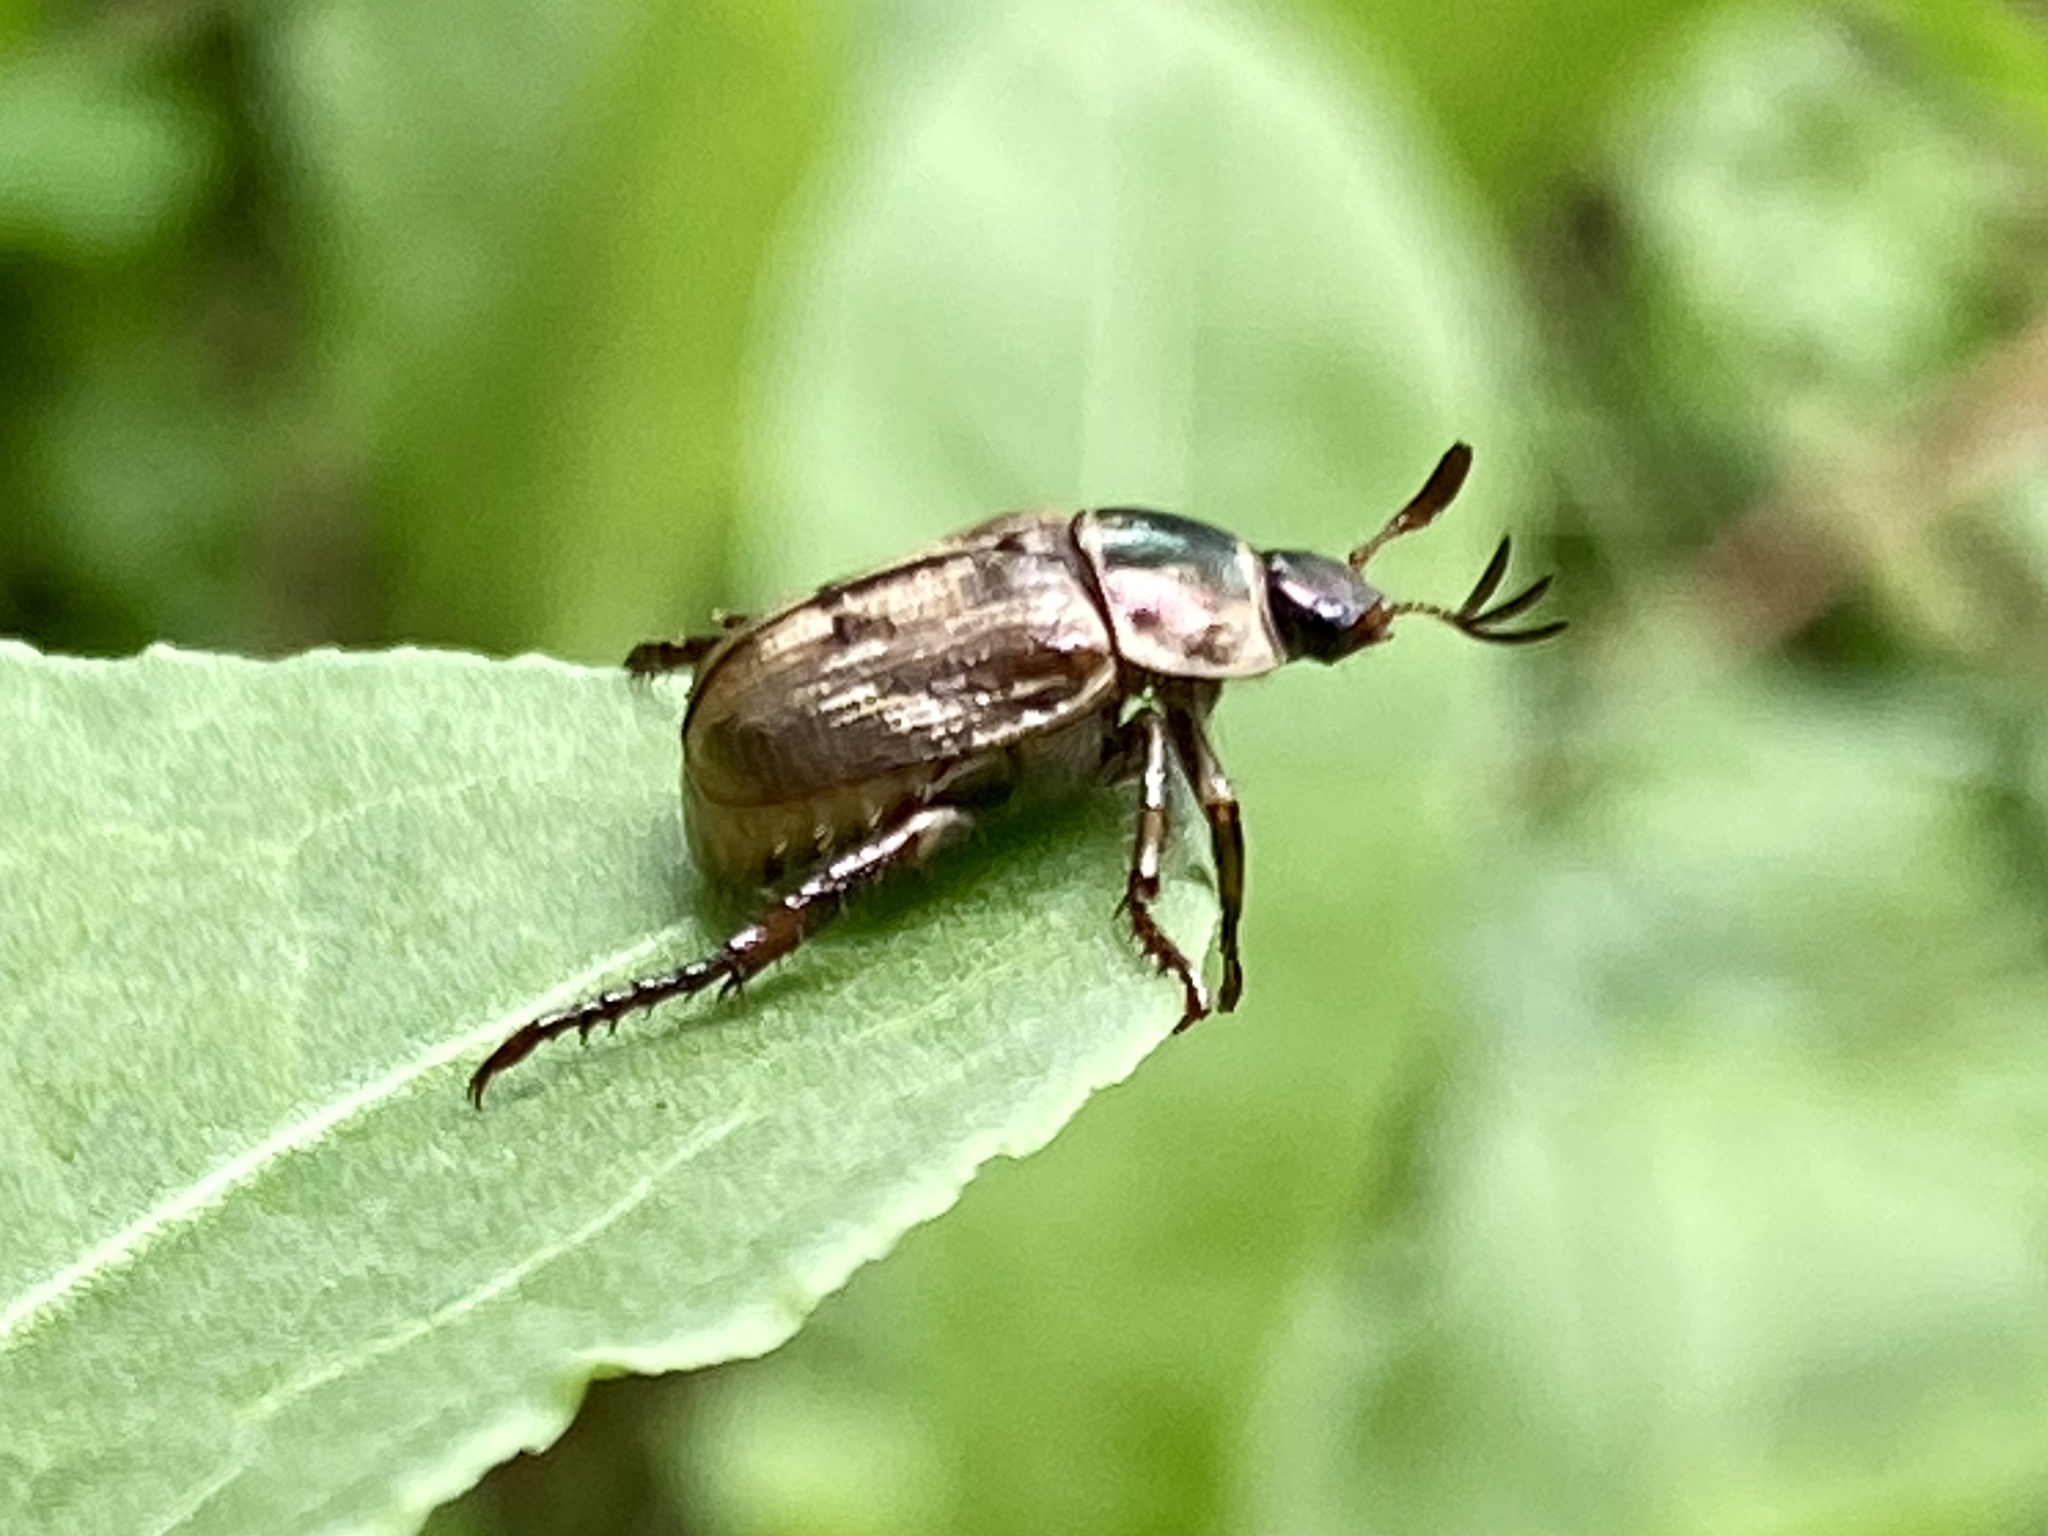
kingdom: Animalia
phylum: Arthropoda
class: Insecta
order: Coleoptera
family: Scarabaeidae
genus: Exomala
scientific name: Exomala orientalis
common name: Oriental beetle
